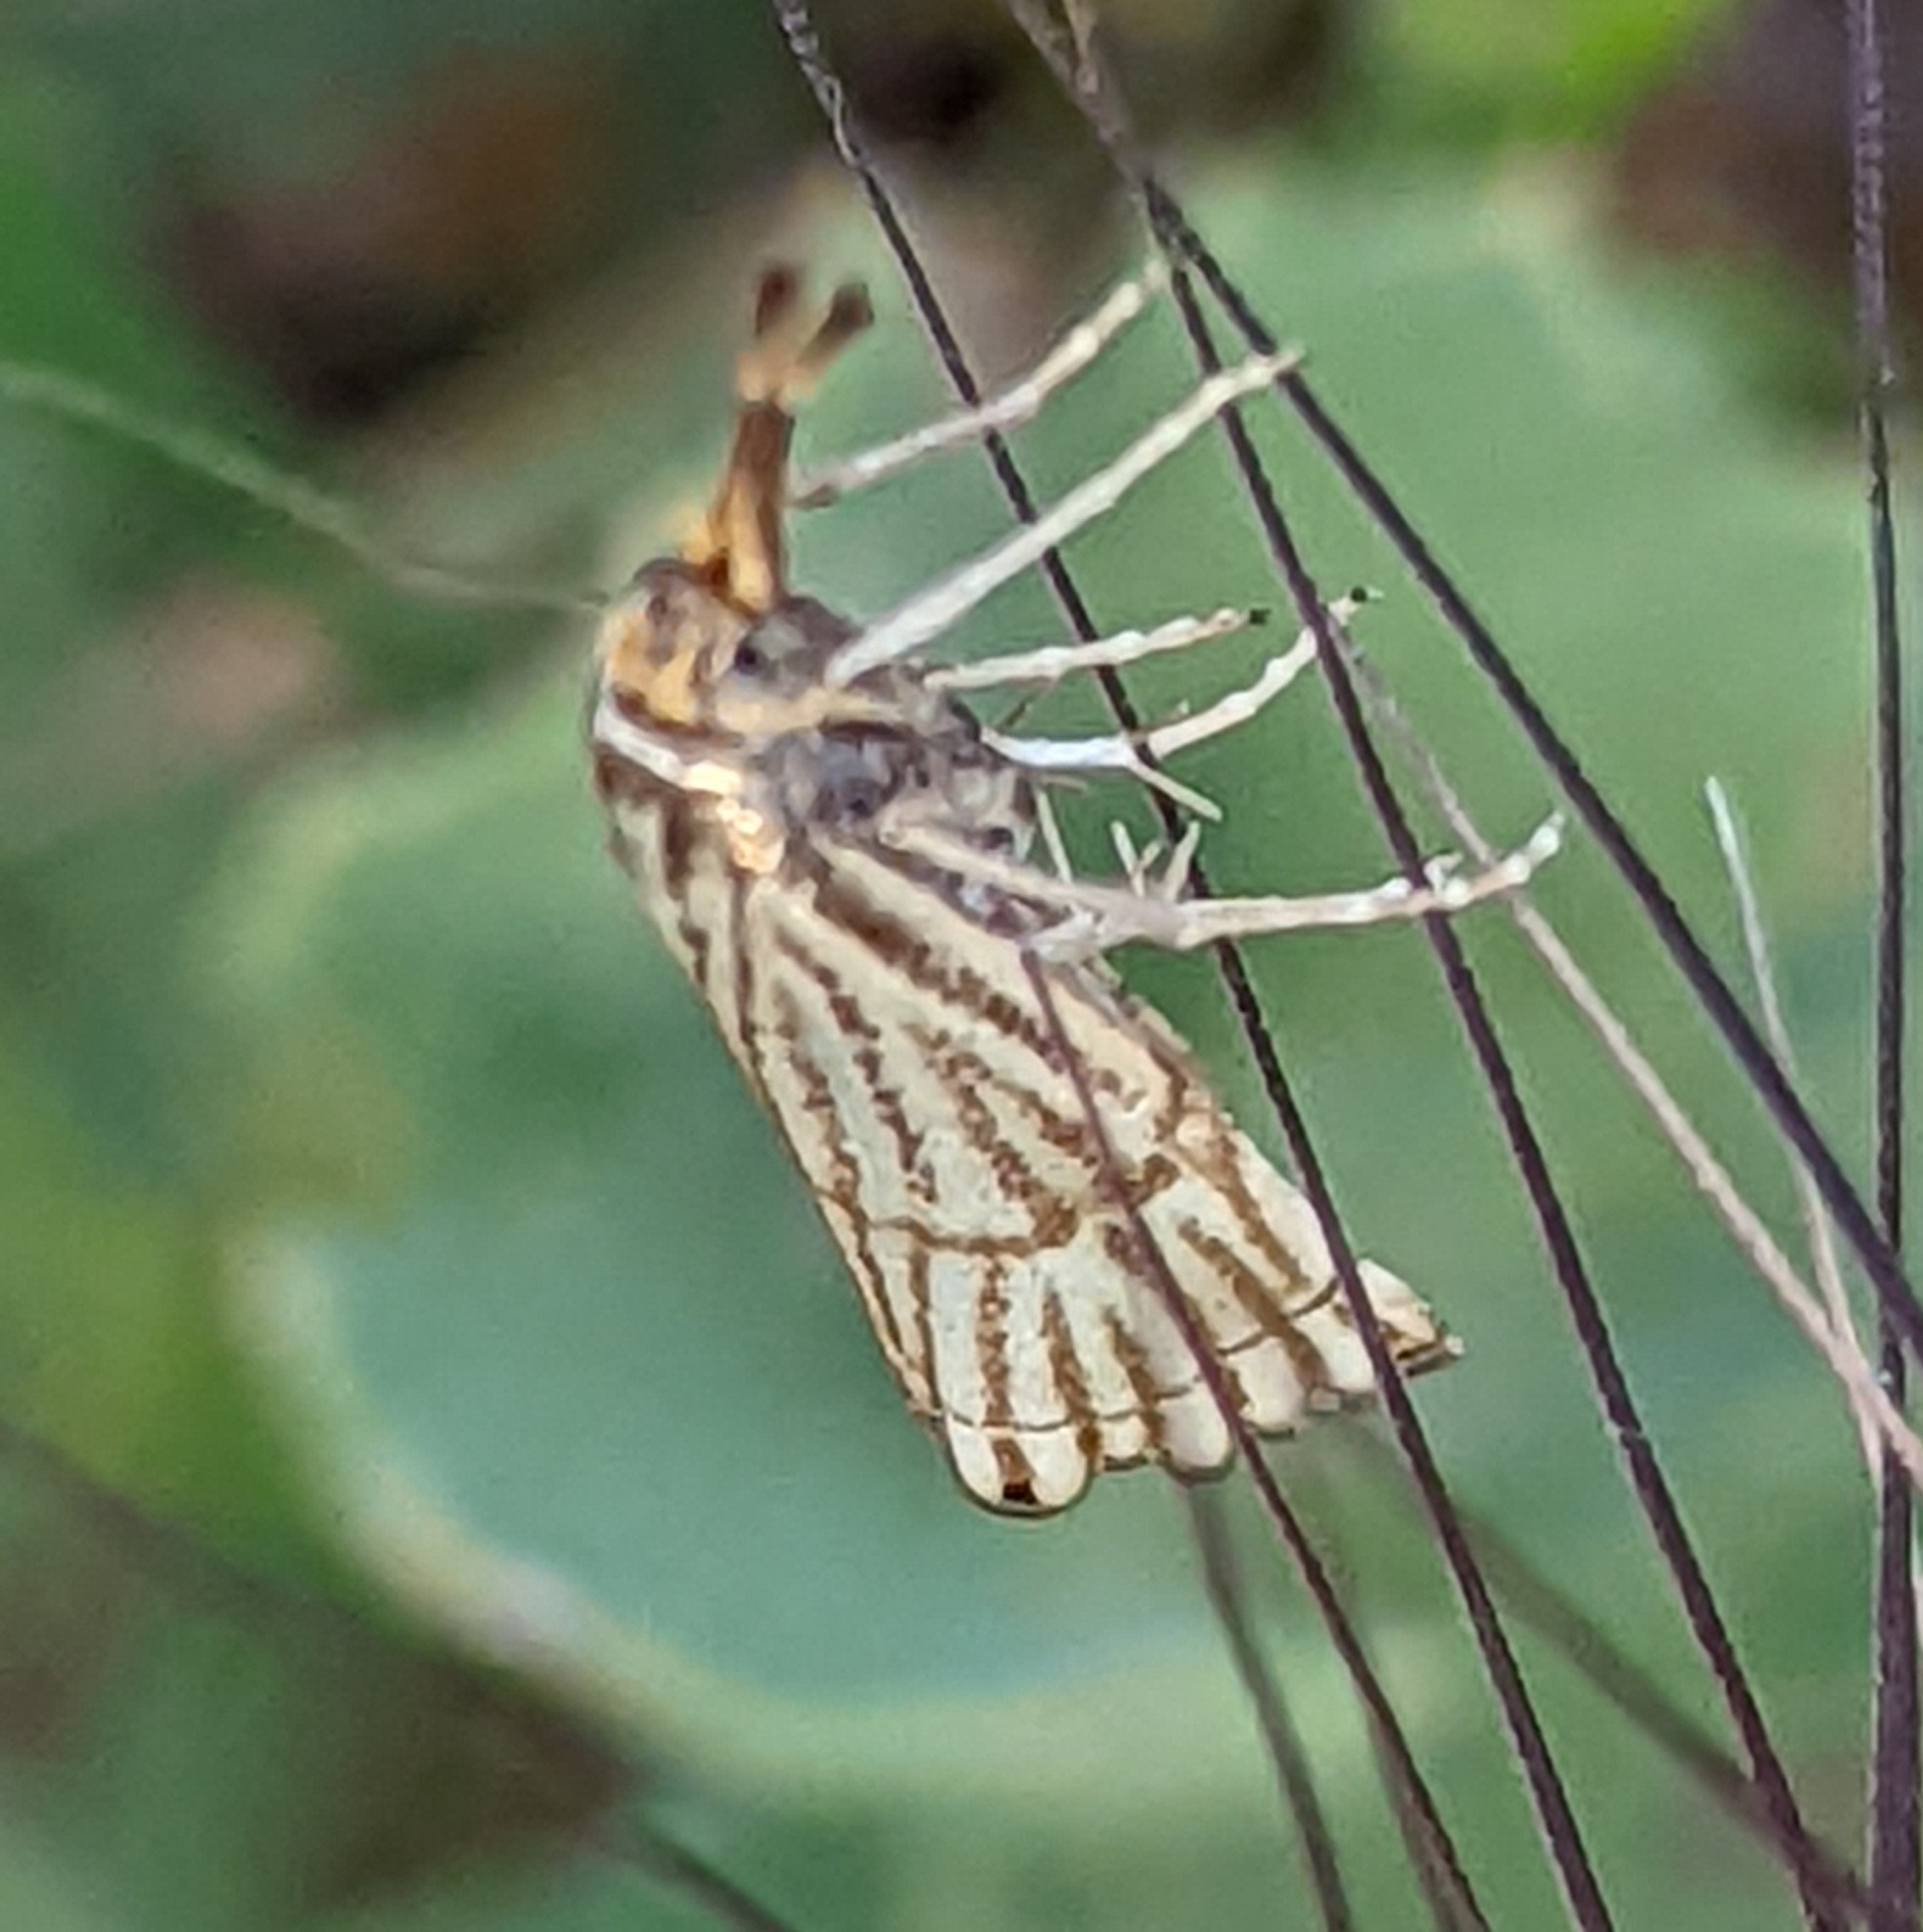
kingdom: Animalia
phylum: Arthropoda
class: Insecta
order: Lepidoptera
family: Crambidae
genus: Chrysocrambus
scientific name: Chrysocrambus linetella
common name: Orange-bar grass-veneer
